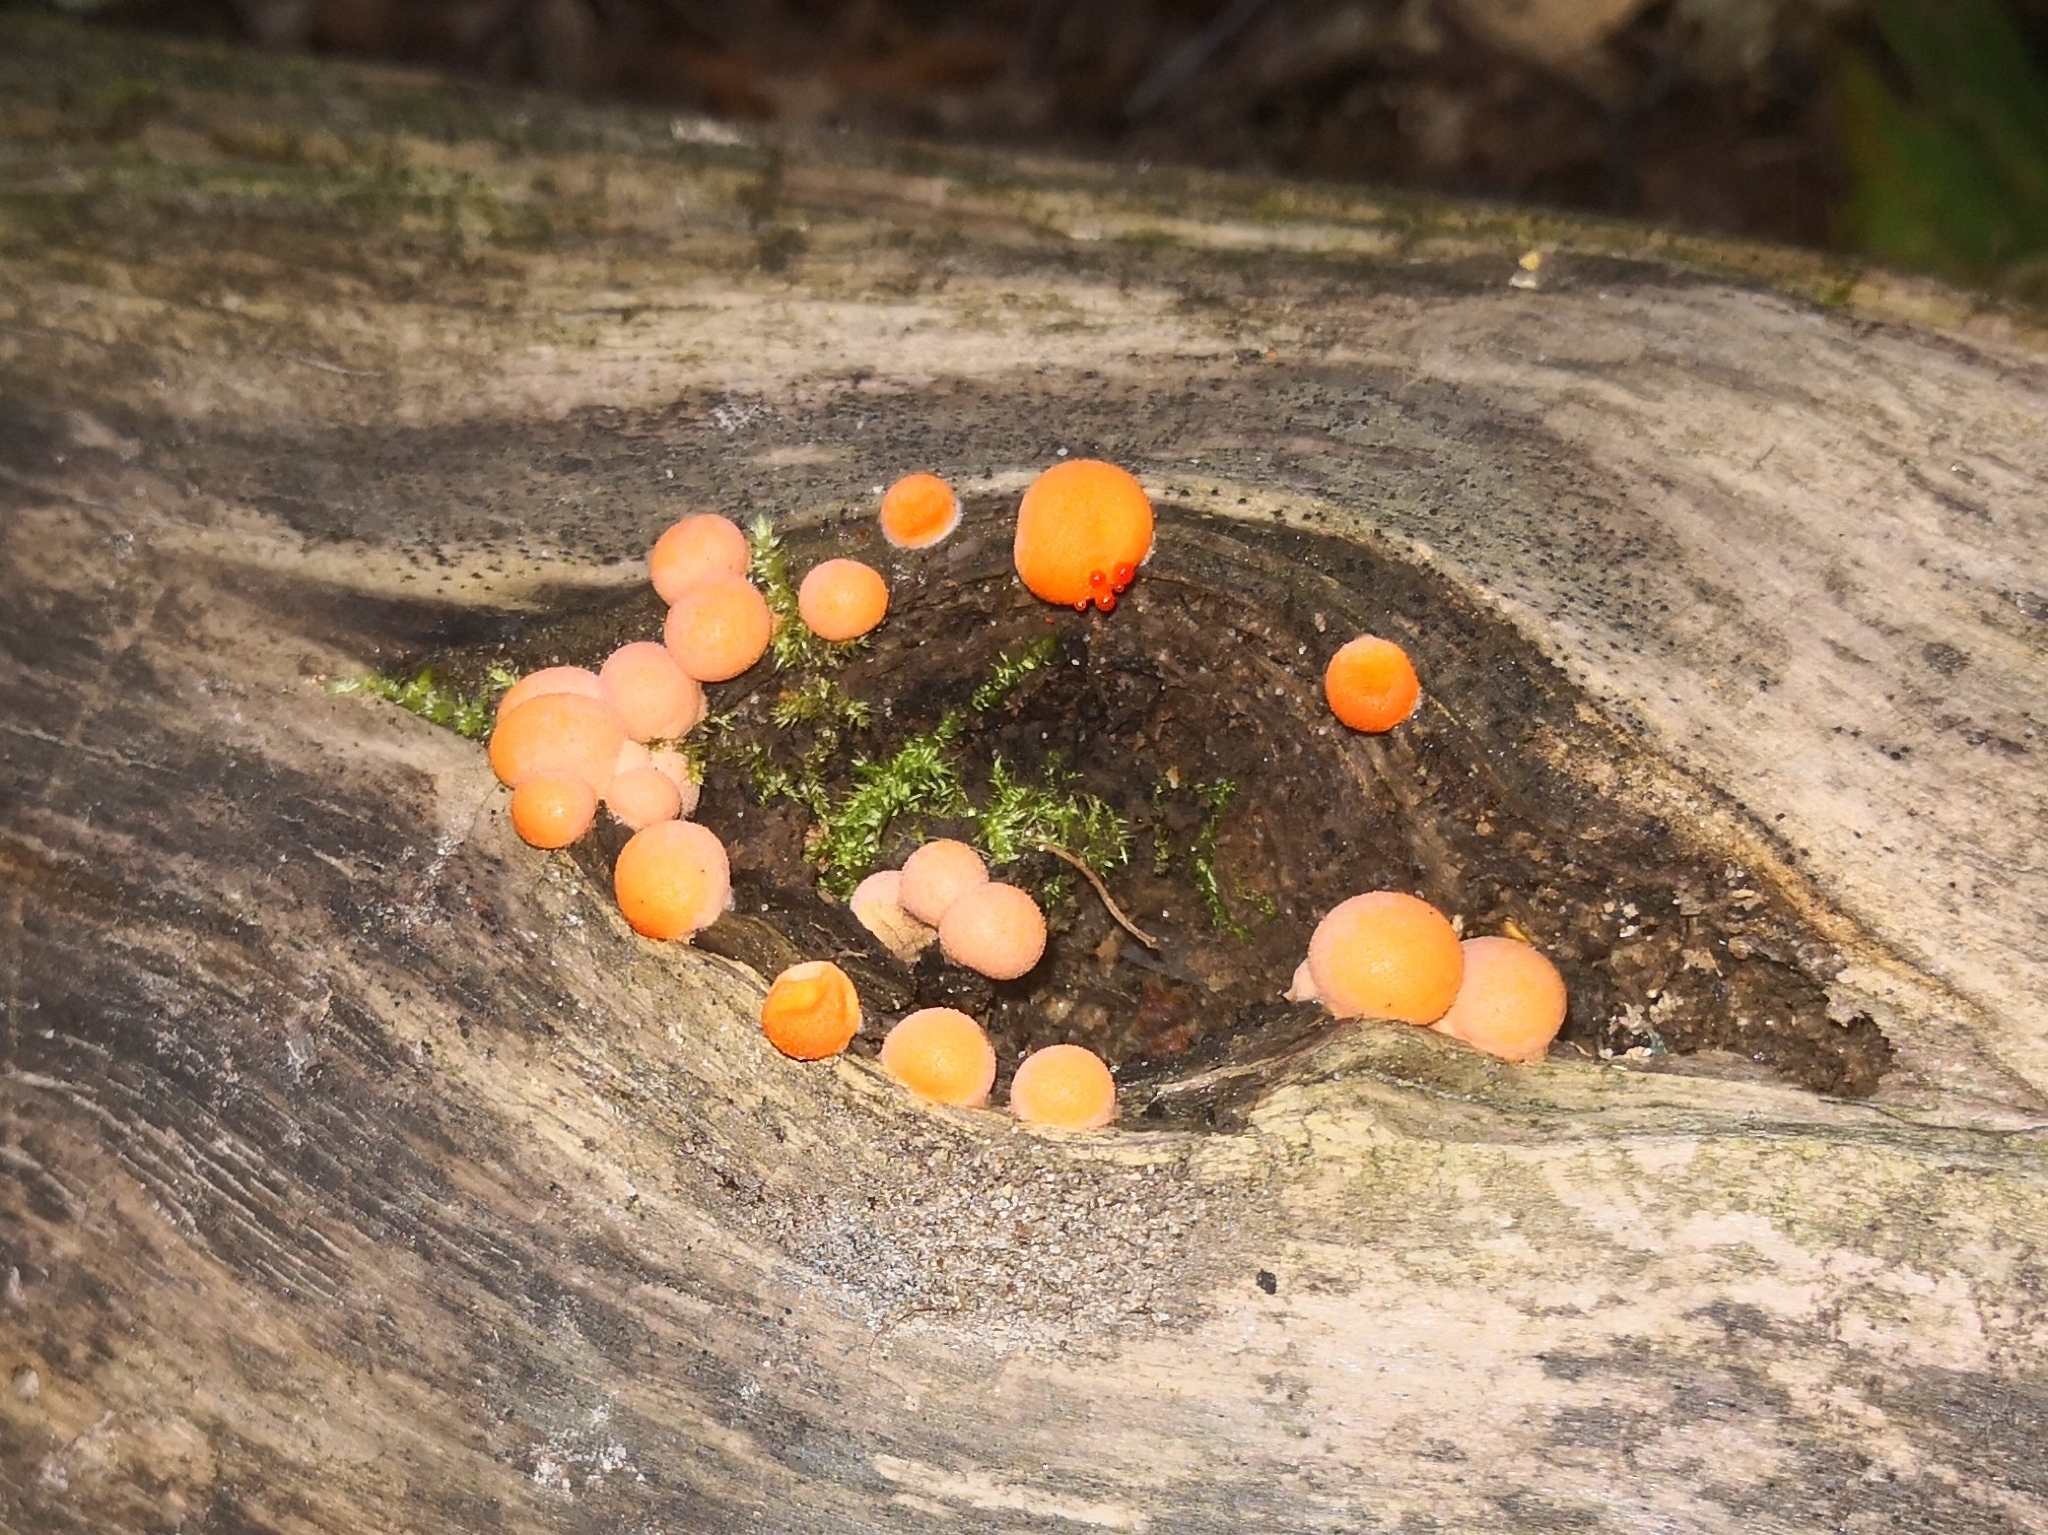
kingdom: Protozoa
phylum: Mycetozoa
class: Myxomycetes
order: Cribrariales
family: Tubiferaceae
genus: Lycogala
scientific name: Lycogala epidendrum
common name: Wolf's milk
